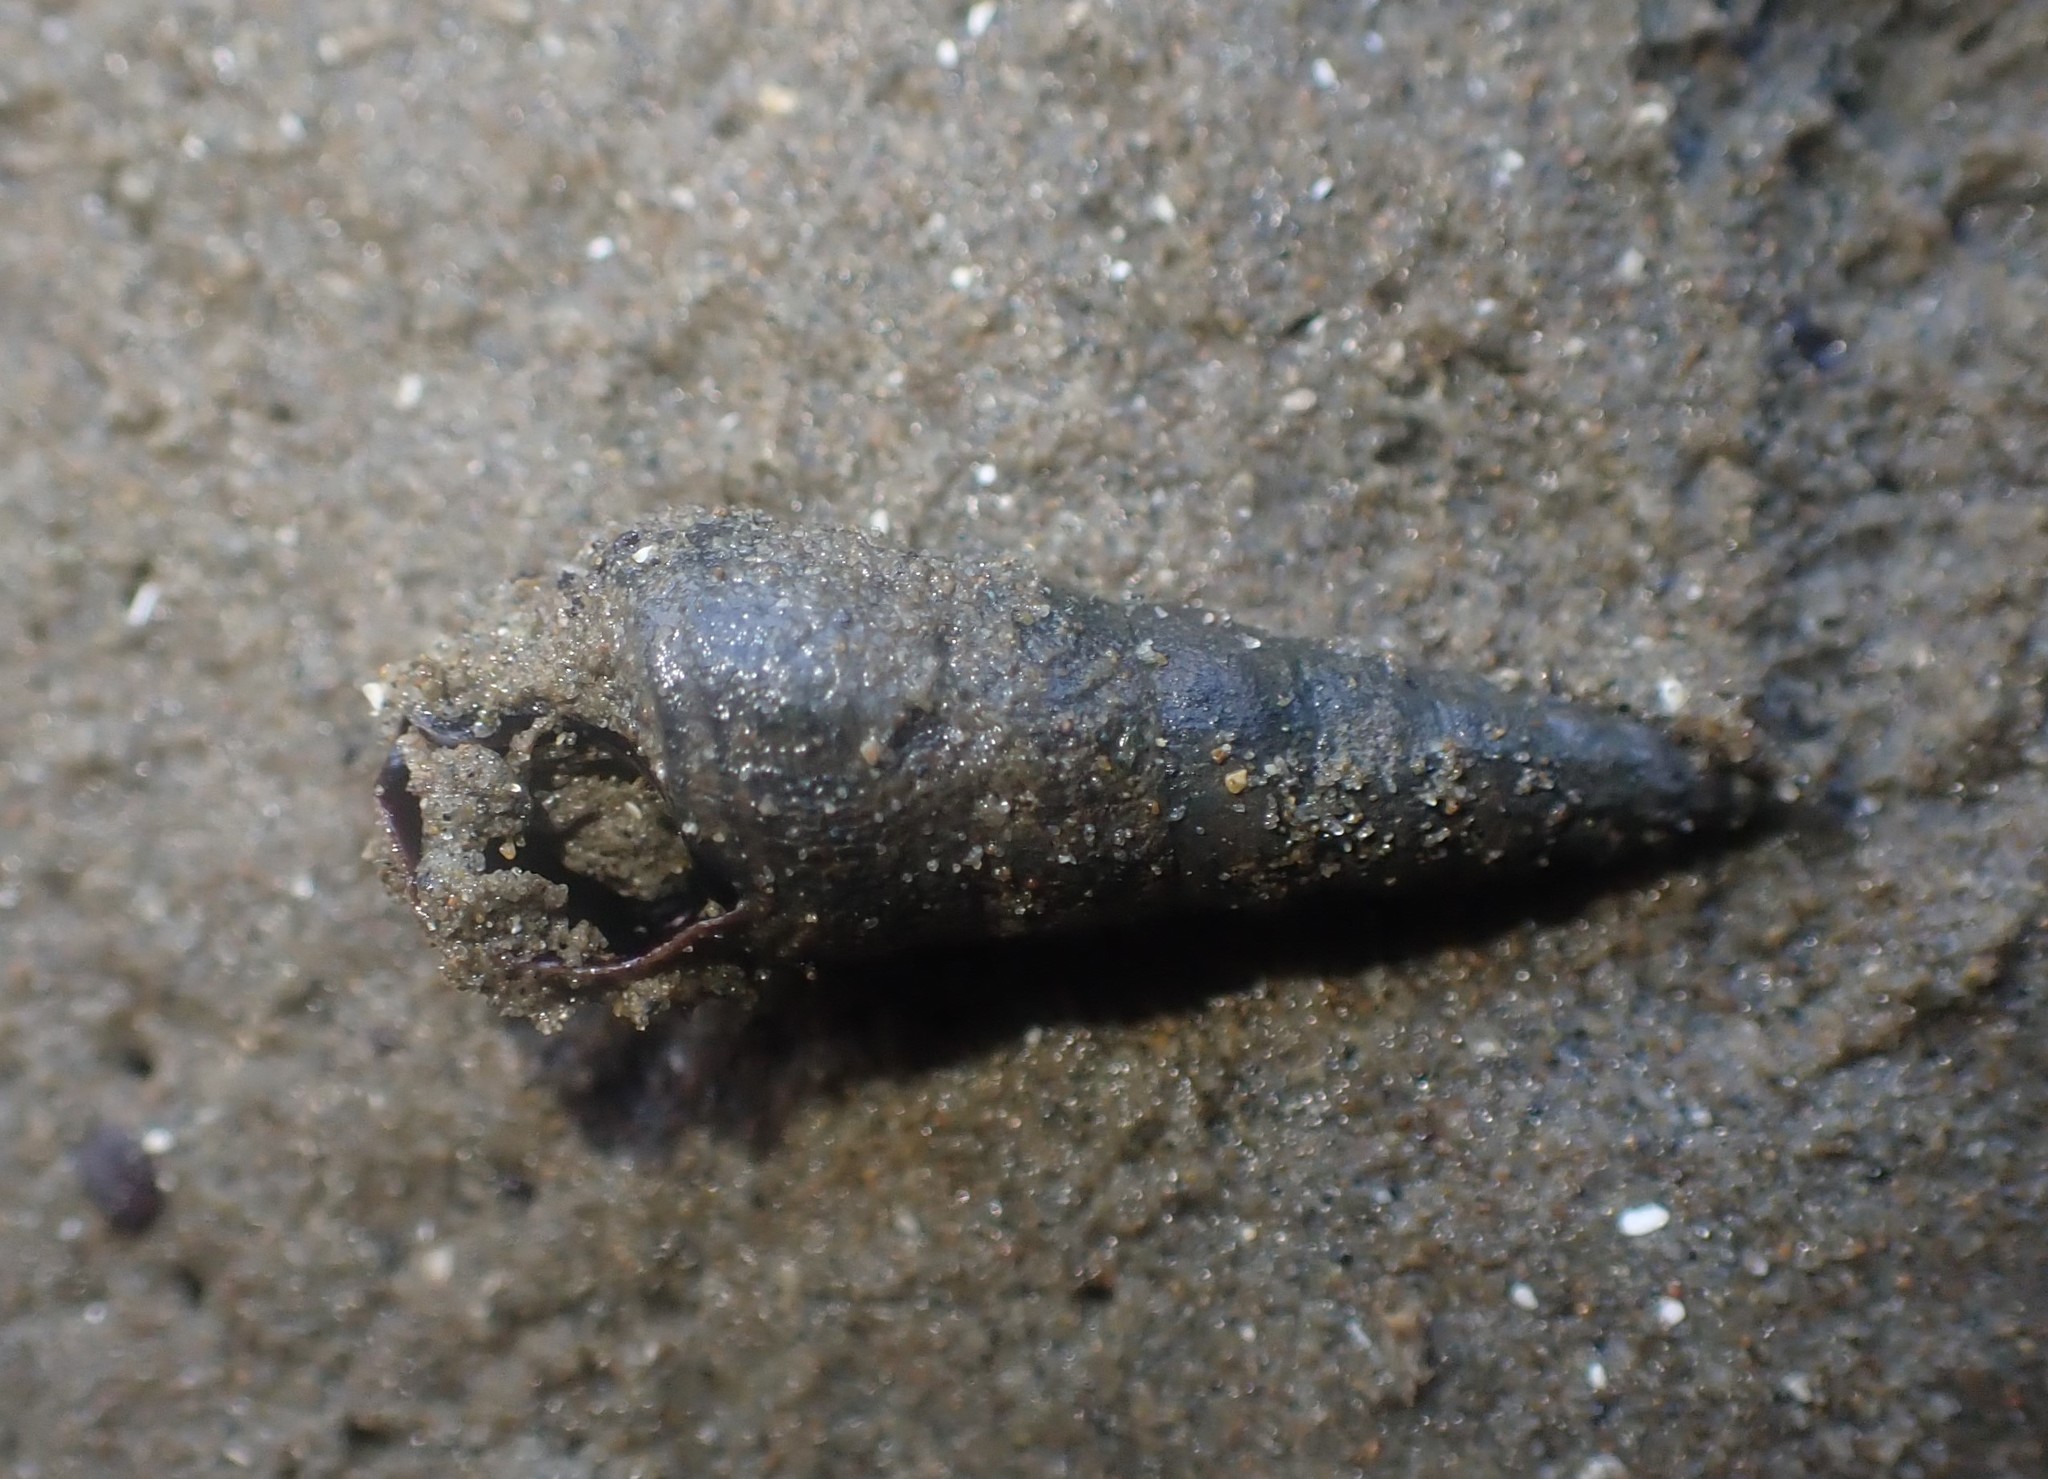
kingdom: Animalia
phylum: Mollusca
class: Gastropoda
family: Batillariidae
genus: Zeacumantus
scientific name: Zeacumantus lutulentus
